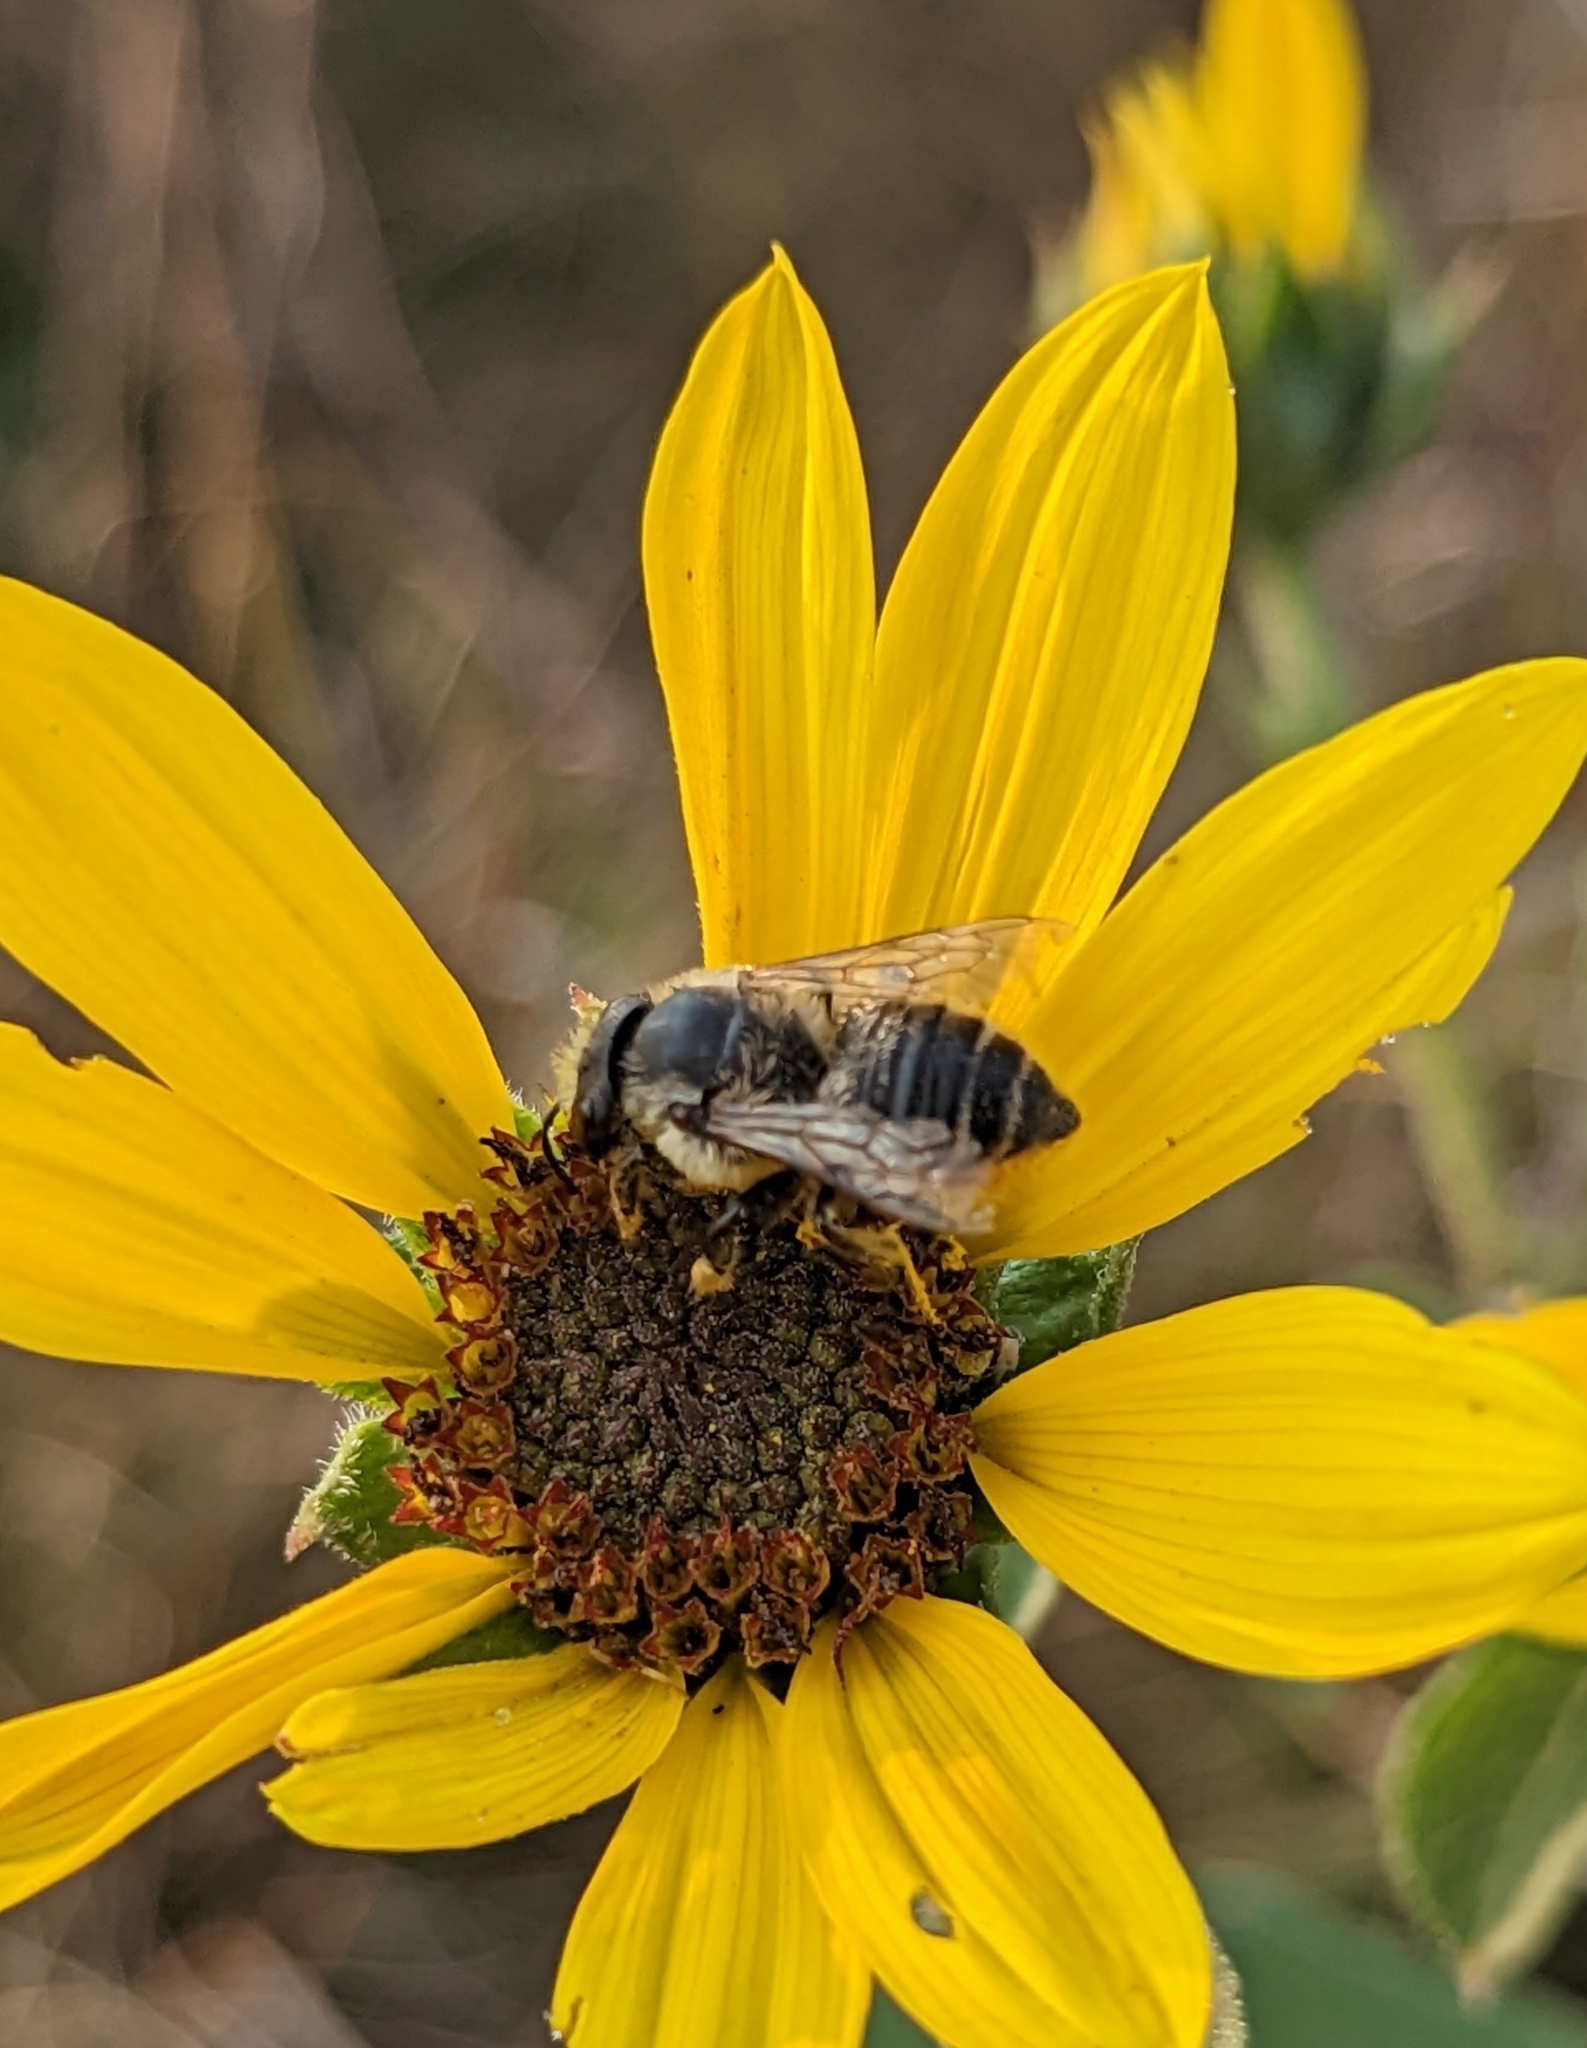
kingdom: Animalia
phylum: Arthropoda
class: Insecta
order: Hymenoptera
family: Megachilidae
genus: Megachile
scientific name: Megachile latimanus
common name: Leafcutting bee
